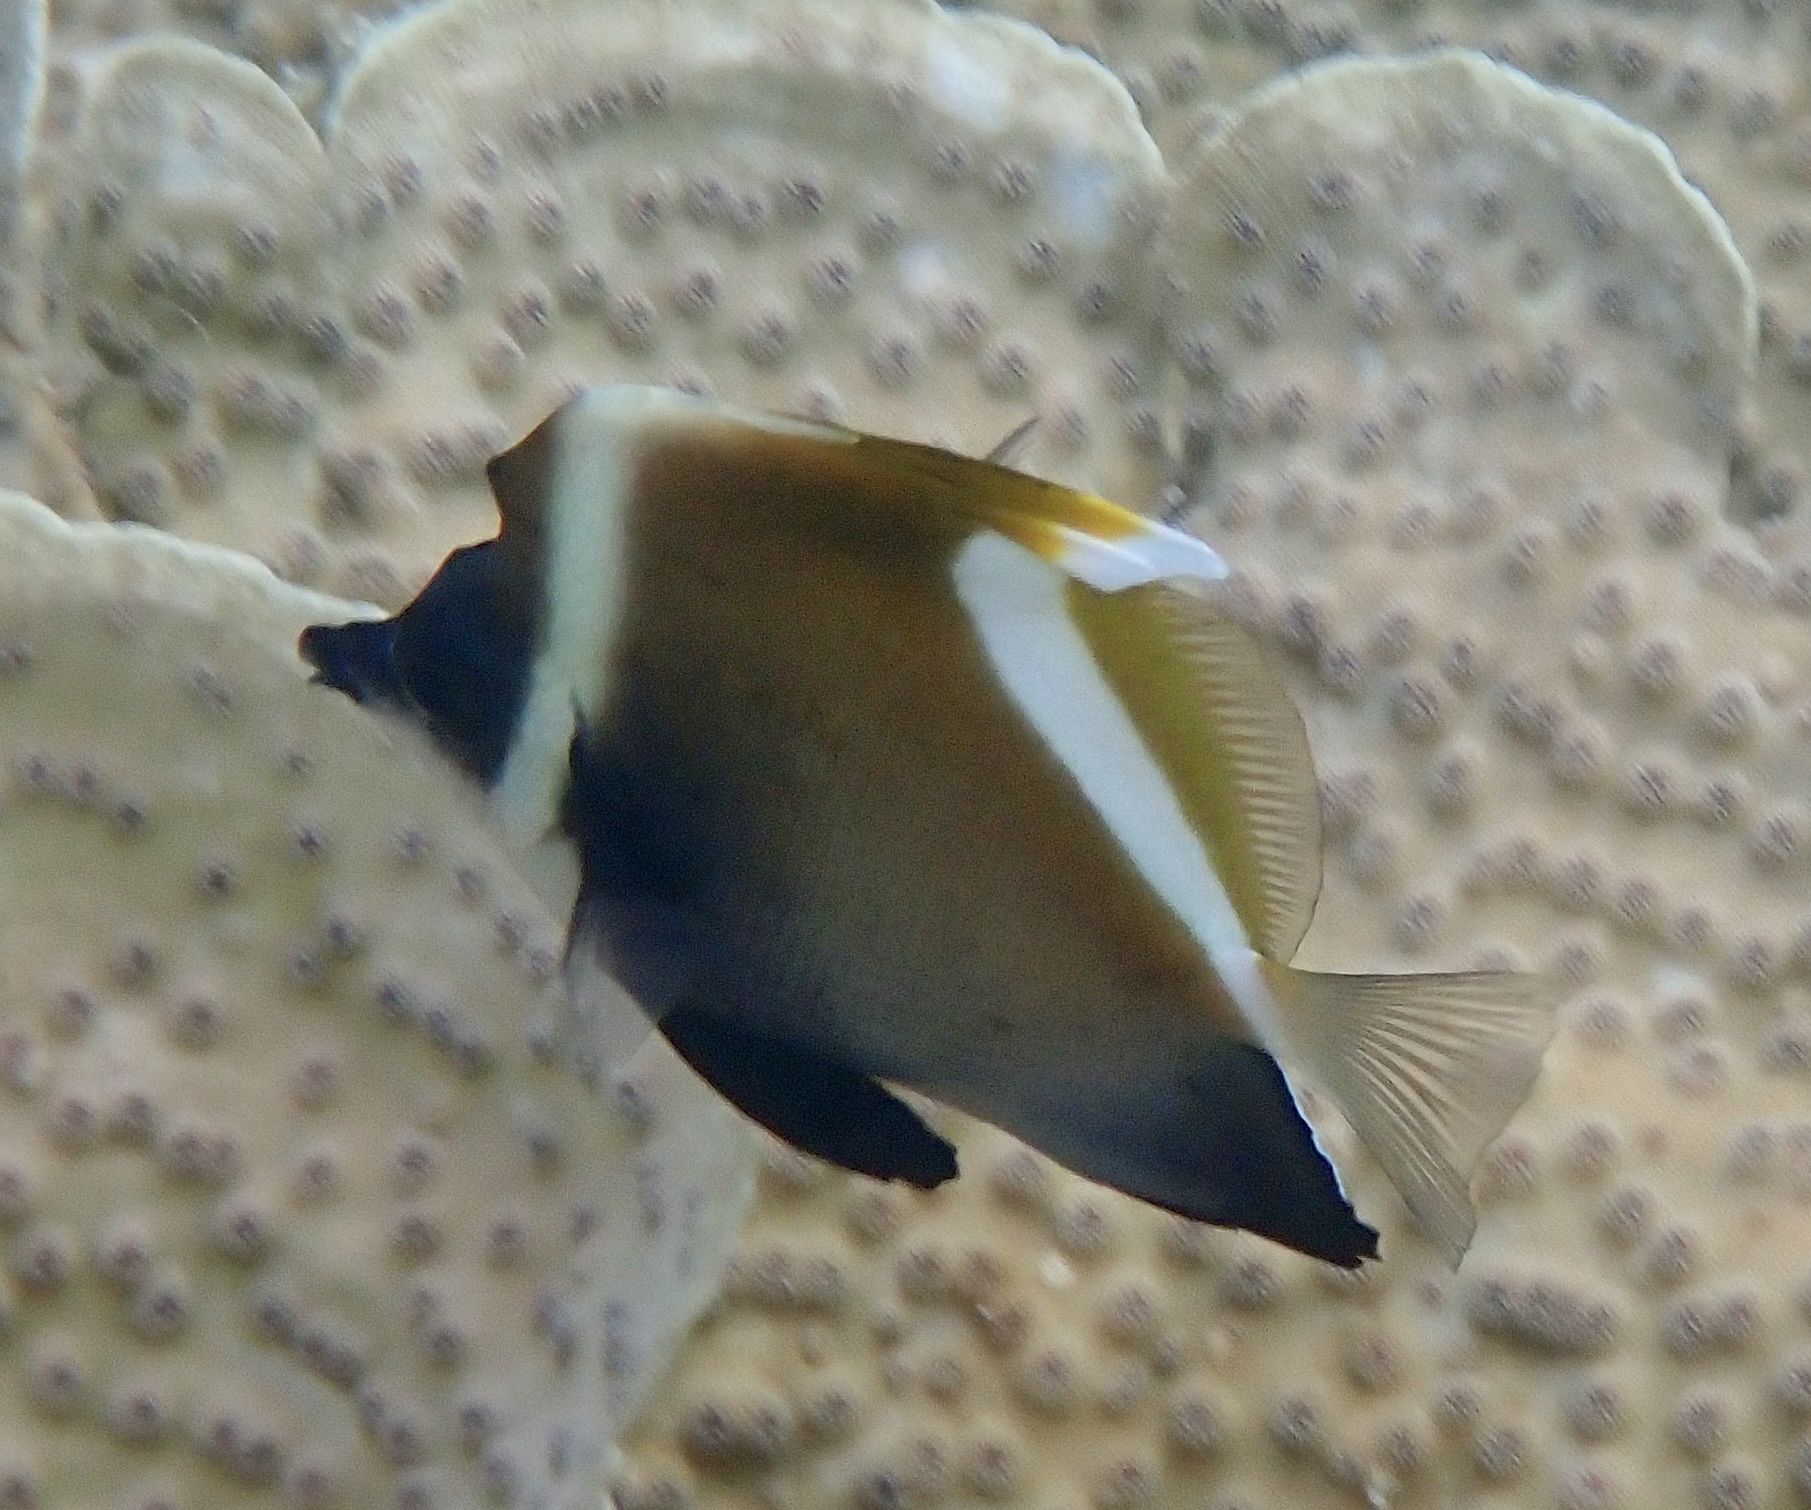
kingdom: Animalia
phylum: Chordata
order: Perciformes
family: Chaetodontidae
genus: Heniochus
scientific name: Heniochus varius
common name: Horned bannerfish
